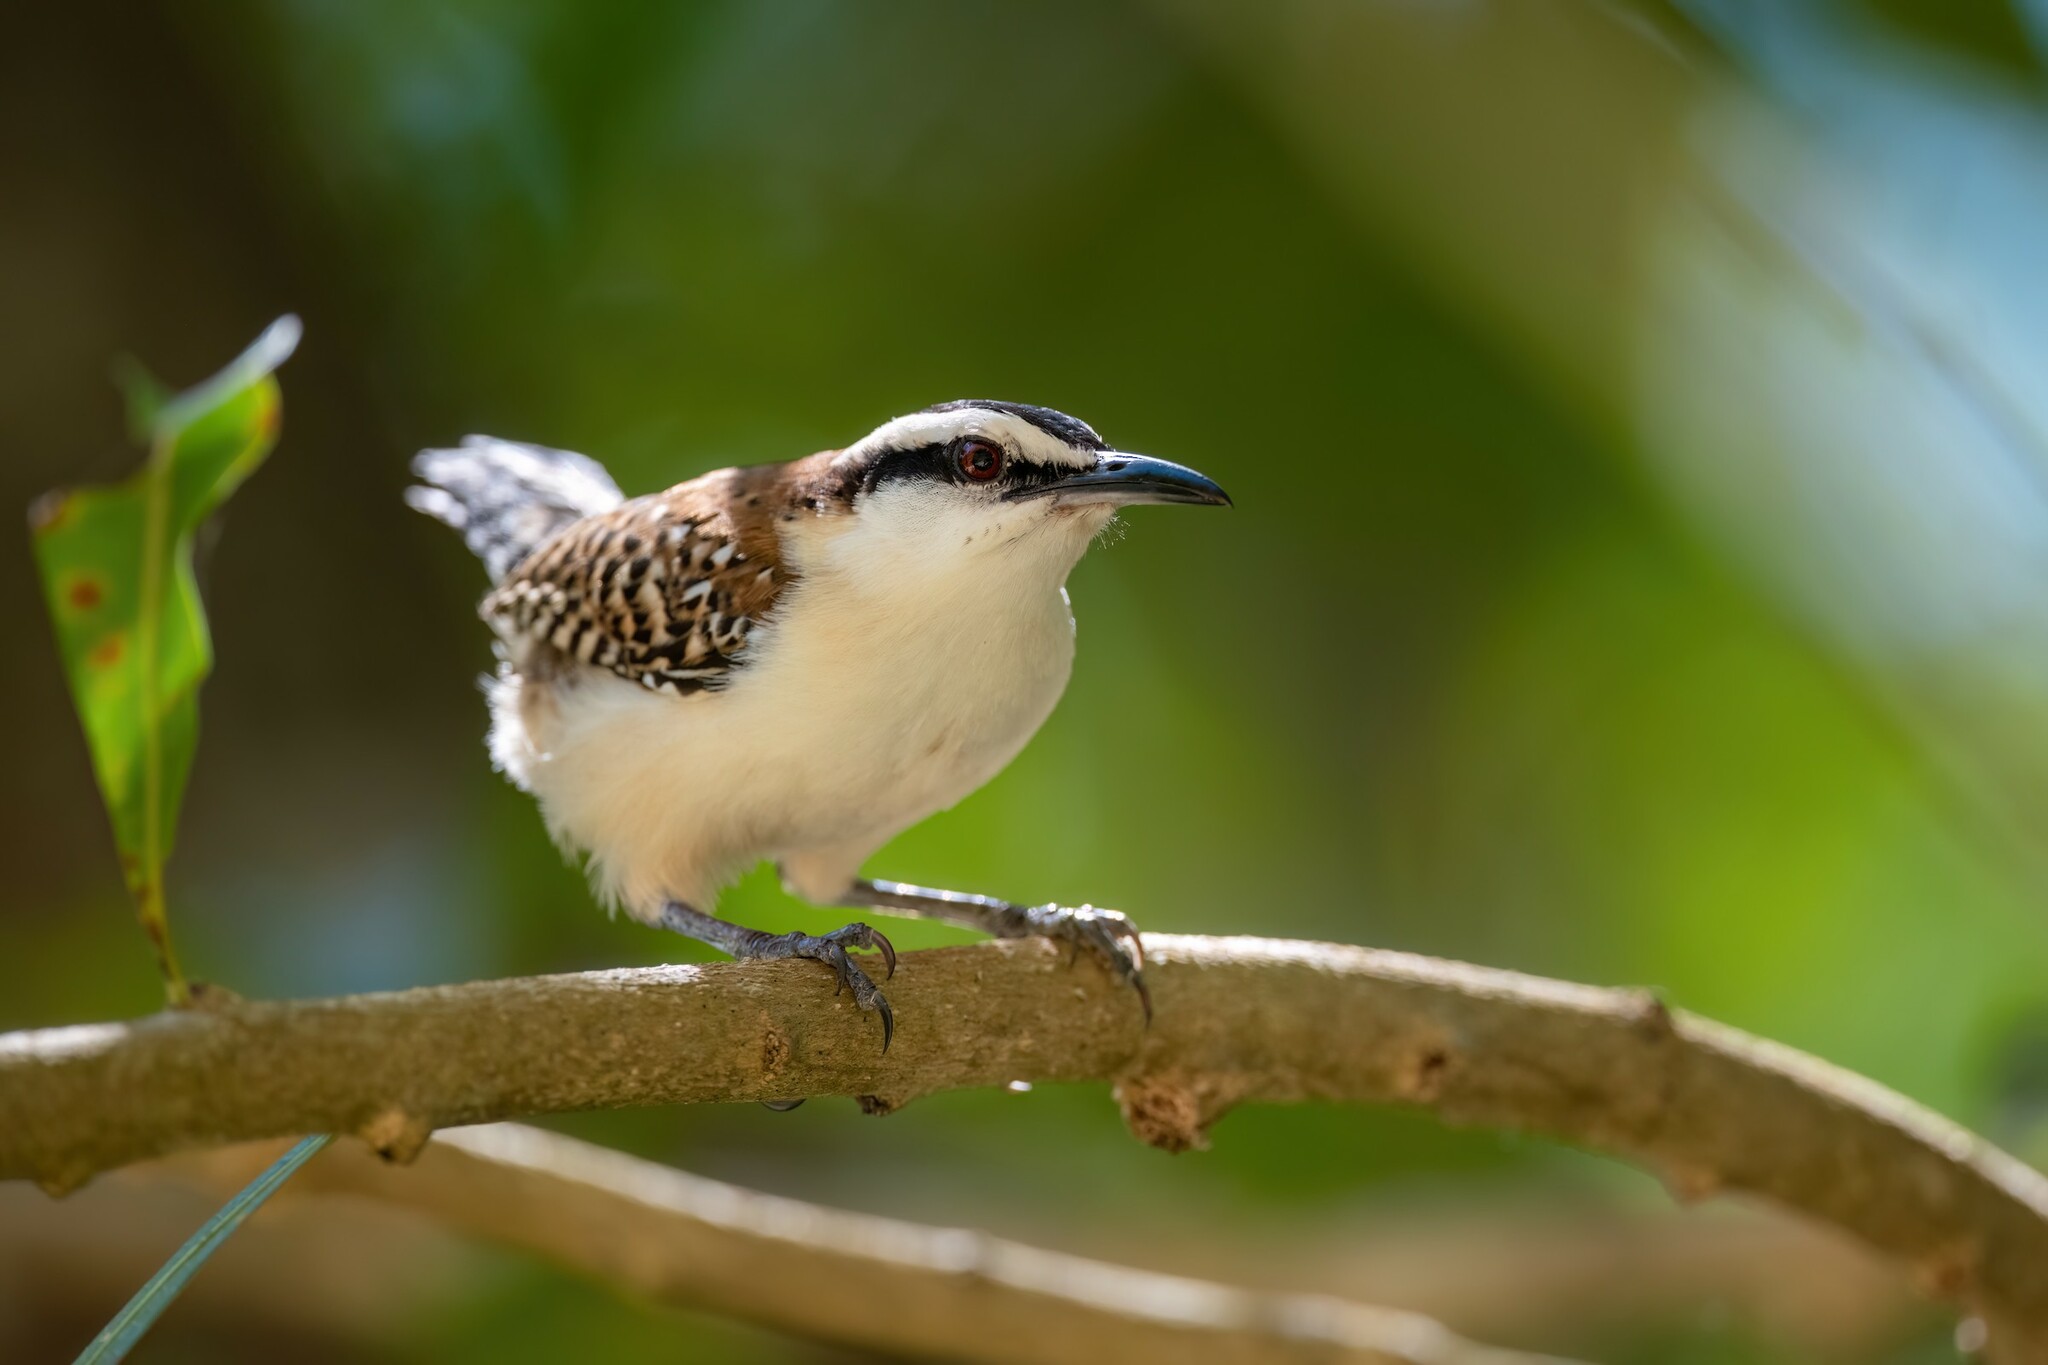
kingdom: Animalia
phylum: Chordata
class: Aves
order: Passeriformes
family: Troglodytidae
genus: Campylorhynchus
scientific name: Campylorhynchus rufinucha
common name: Rufous-naped wren
